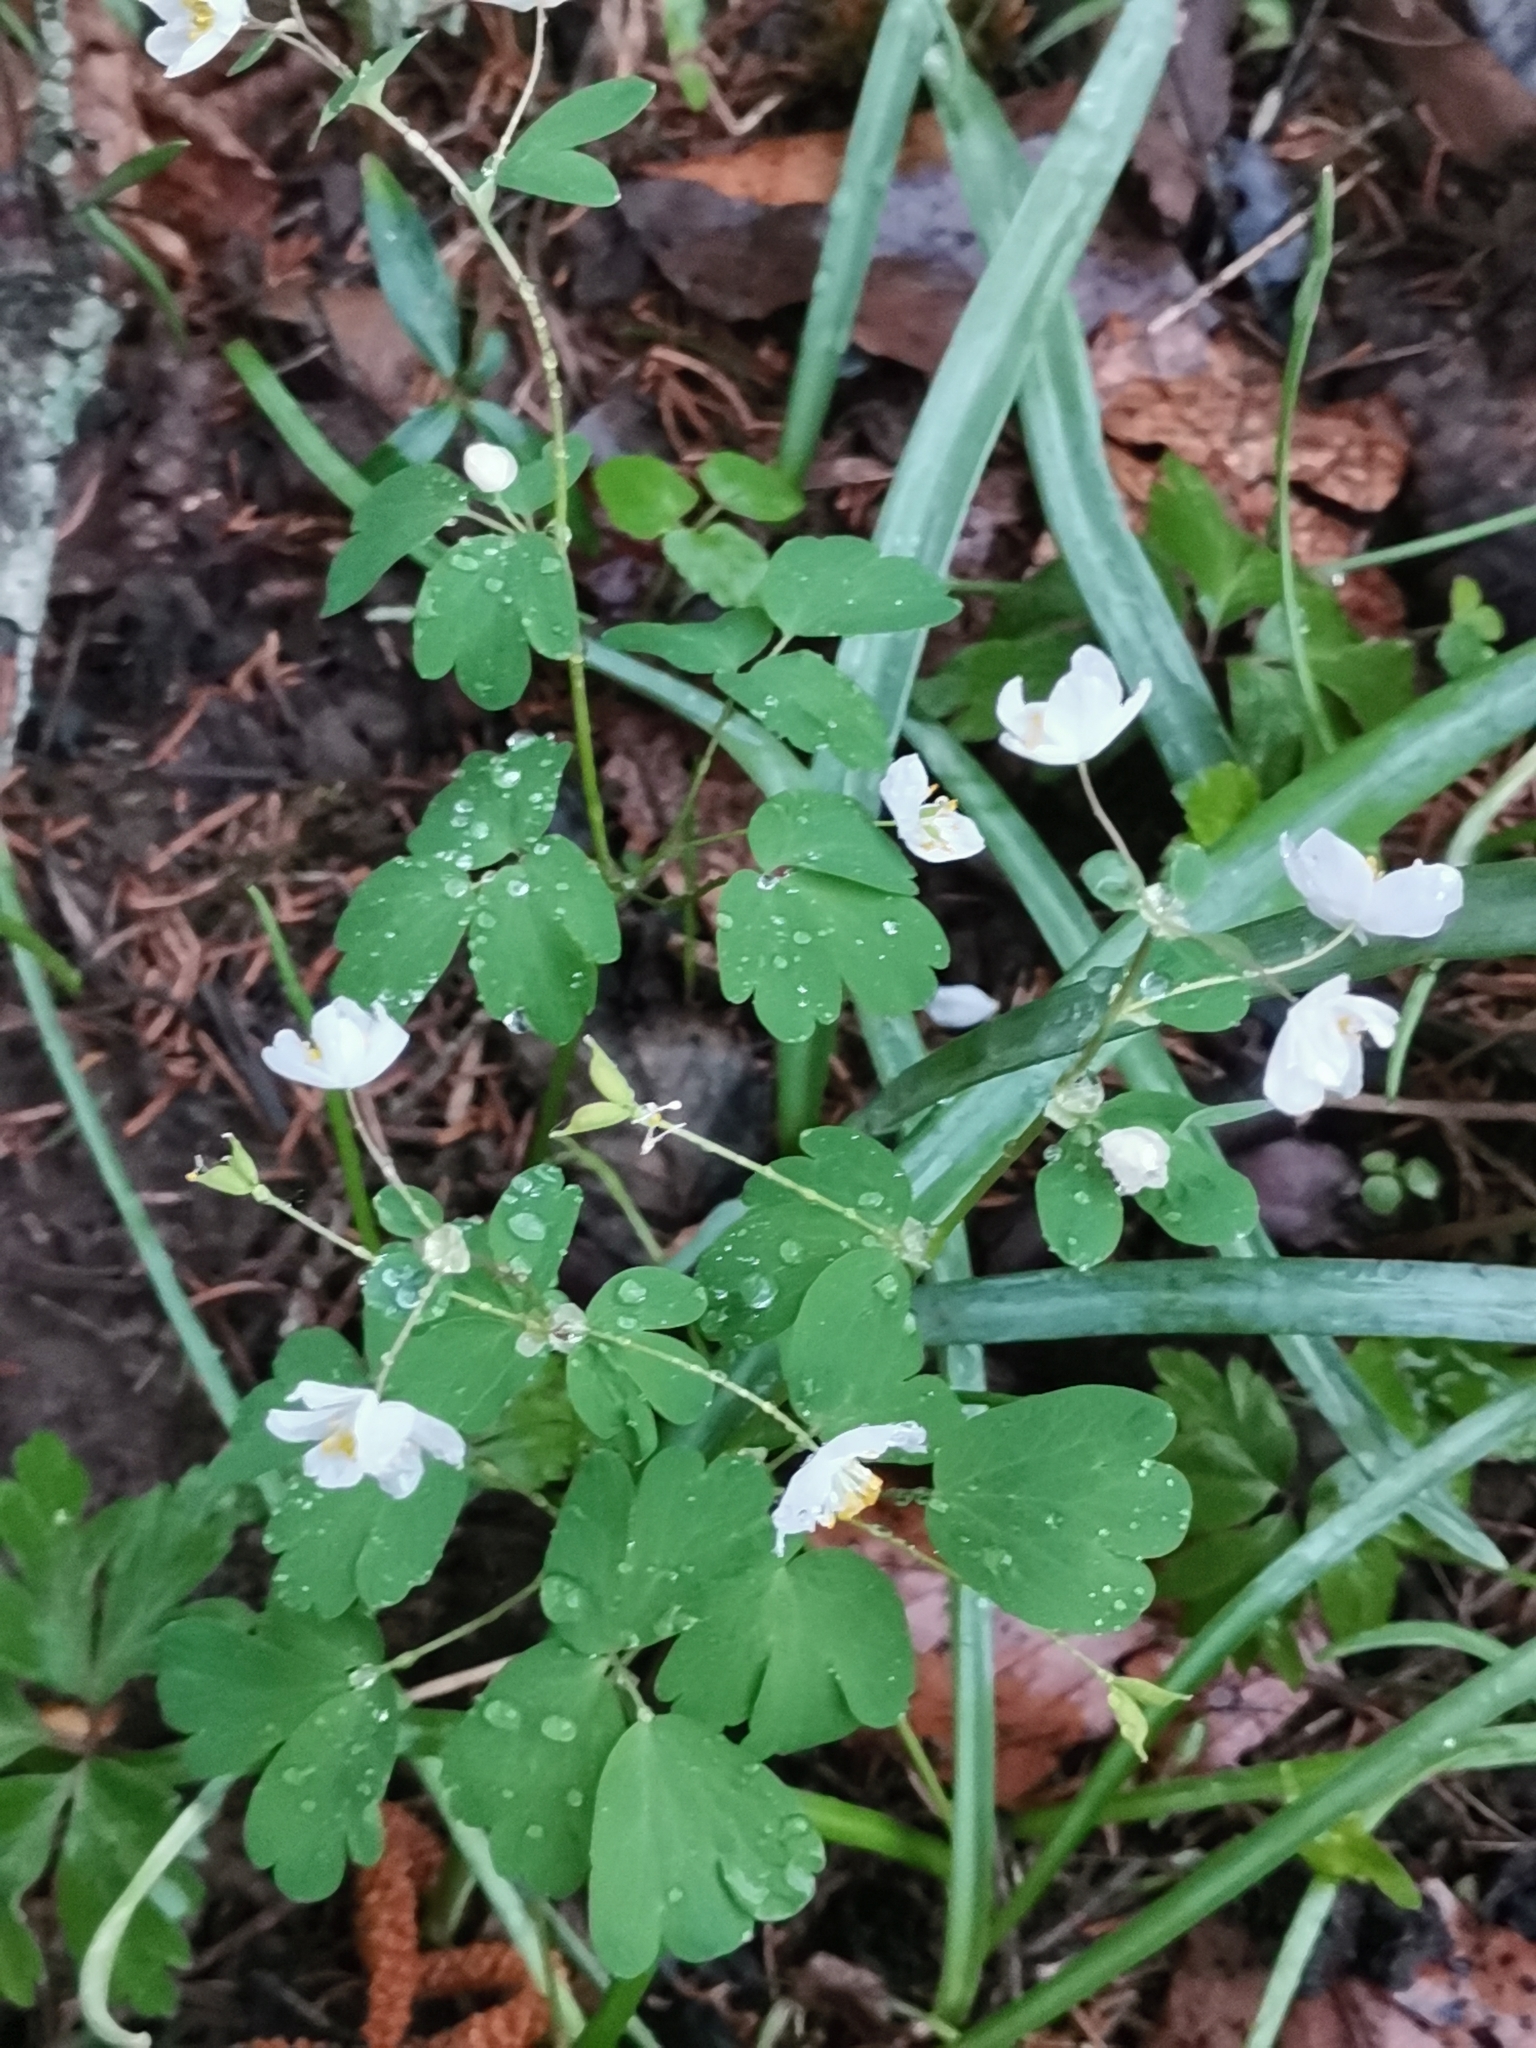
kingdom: Plantae
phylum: Tracheophyta
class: Magnoliopsida
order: Ranunculales
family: Ranunculaceae
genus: Isopyrum
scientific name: Isopyrum thalictroides
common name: Isopyrum
